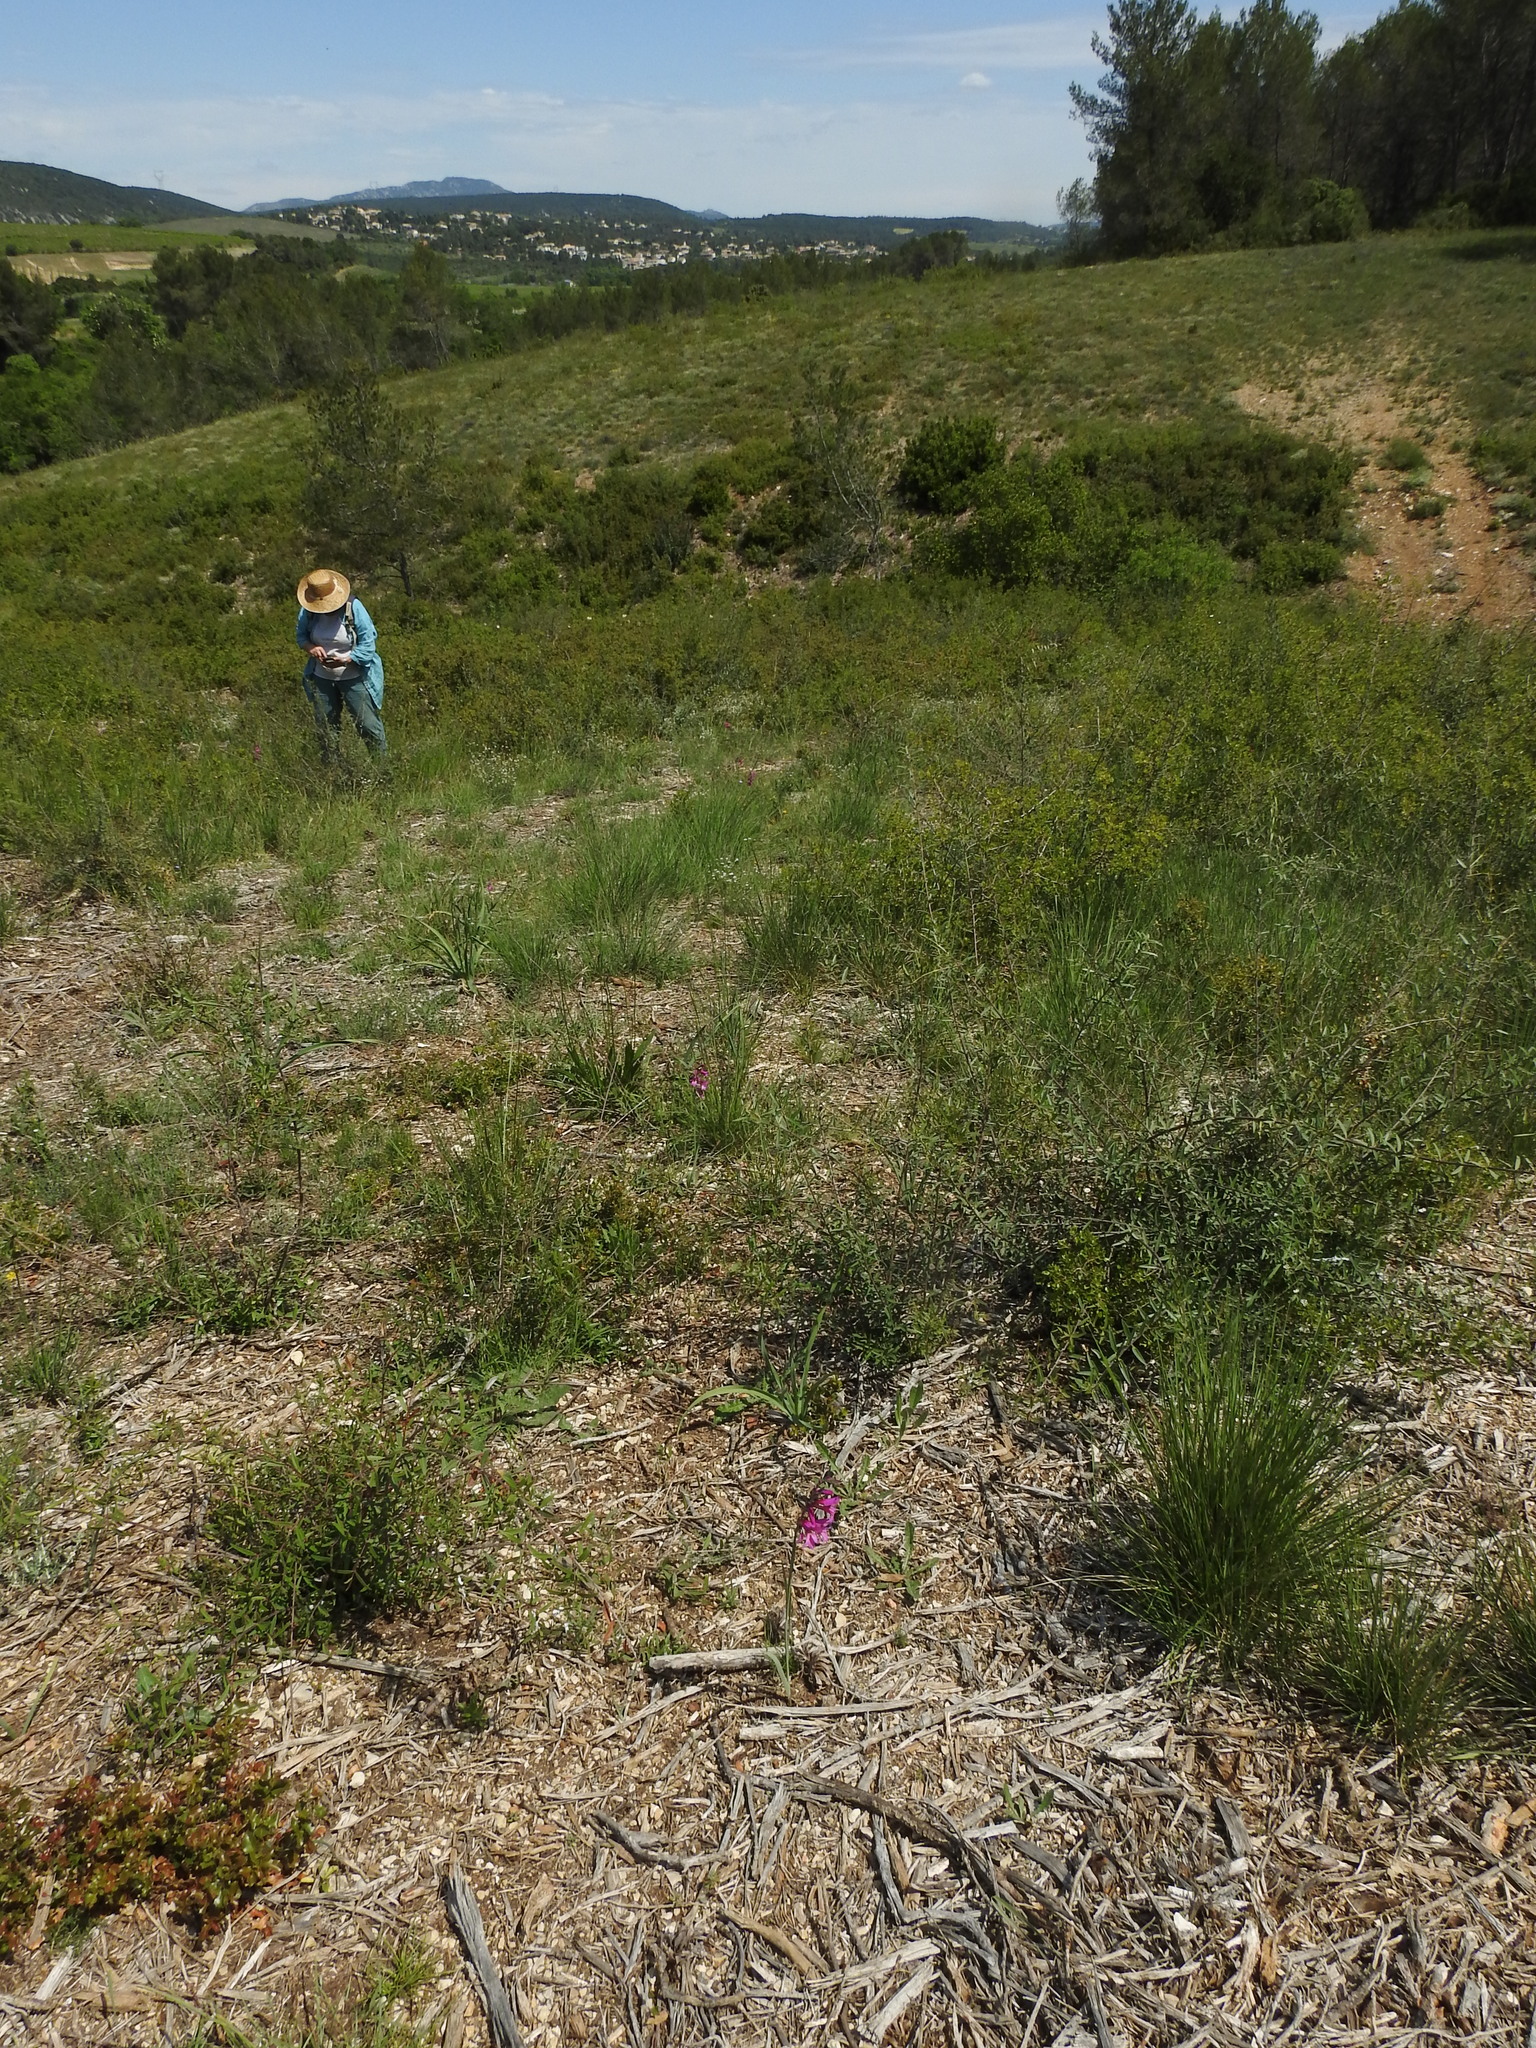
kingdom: Plantae
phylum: Tracheophyta
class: Liliopsida
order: Asparagales
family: Iridaceae
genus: Gladiolus
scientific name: Gladiolus dubius
